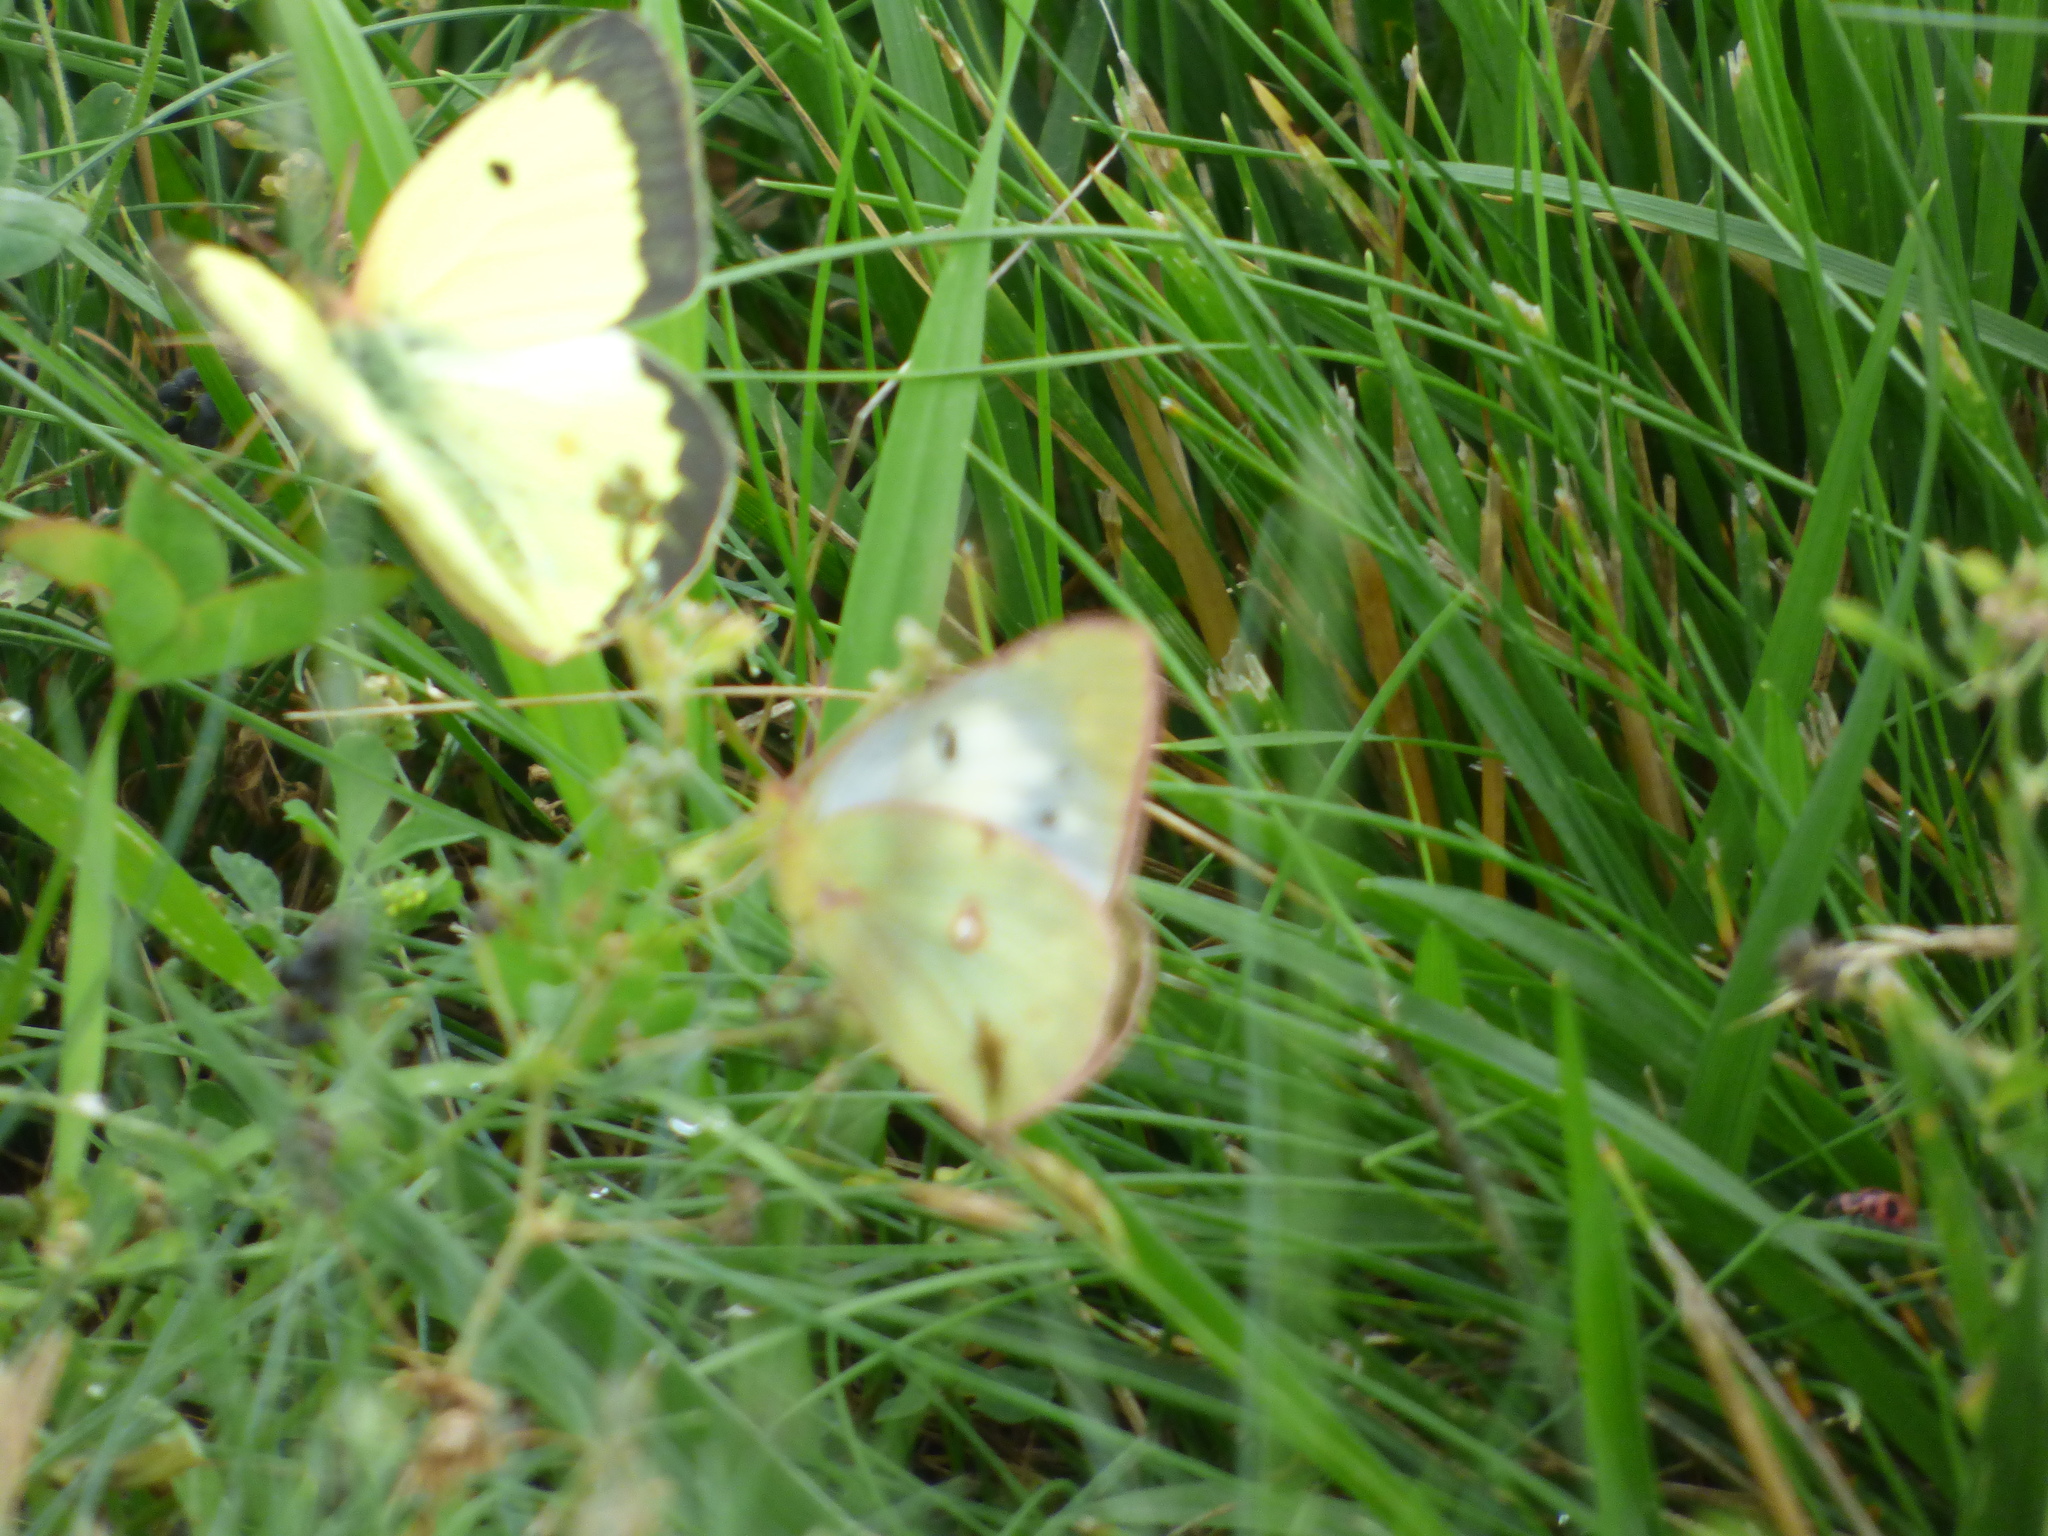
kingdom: Animalia
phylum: Arthropoda
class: Insecta
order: Lepidoptera
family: Pieridae
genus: Colias
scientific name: Colias philodice
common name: Clouded sulphur
